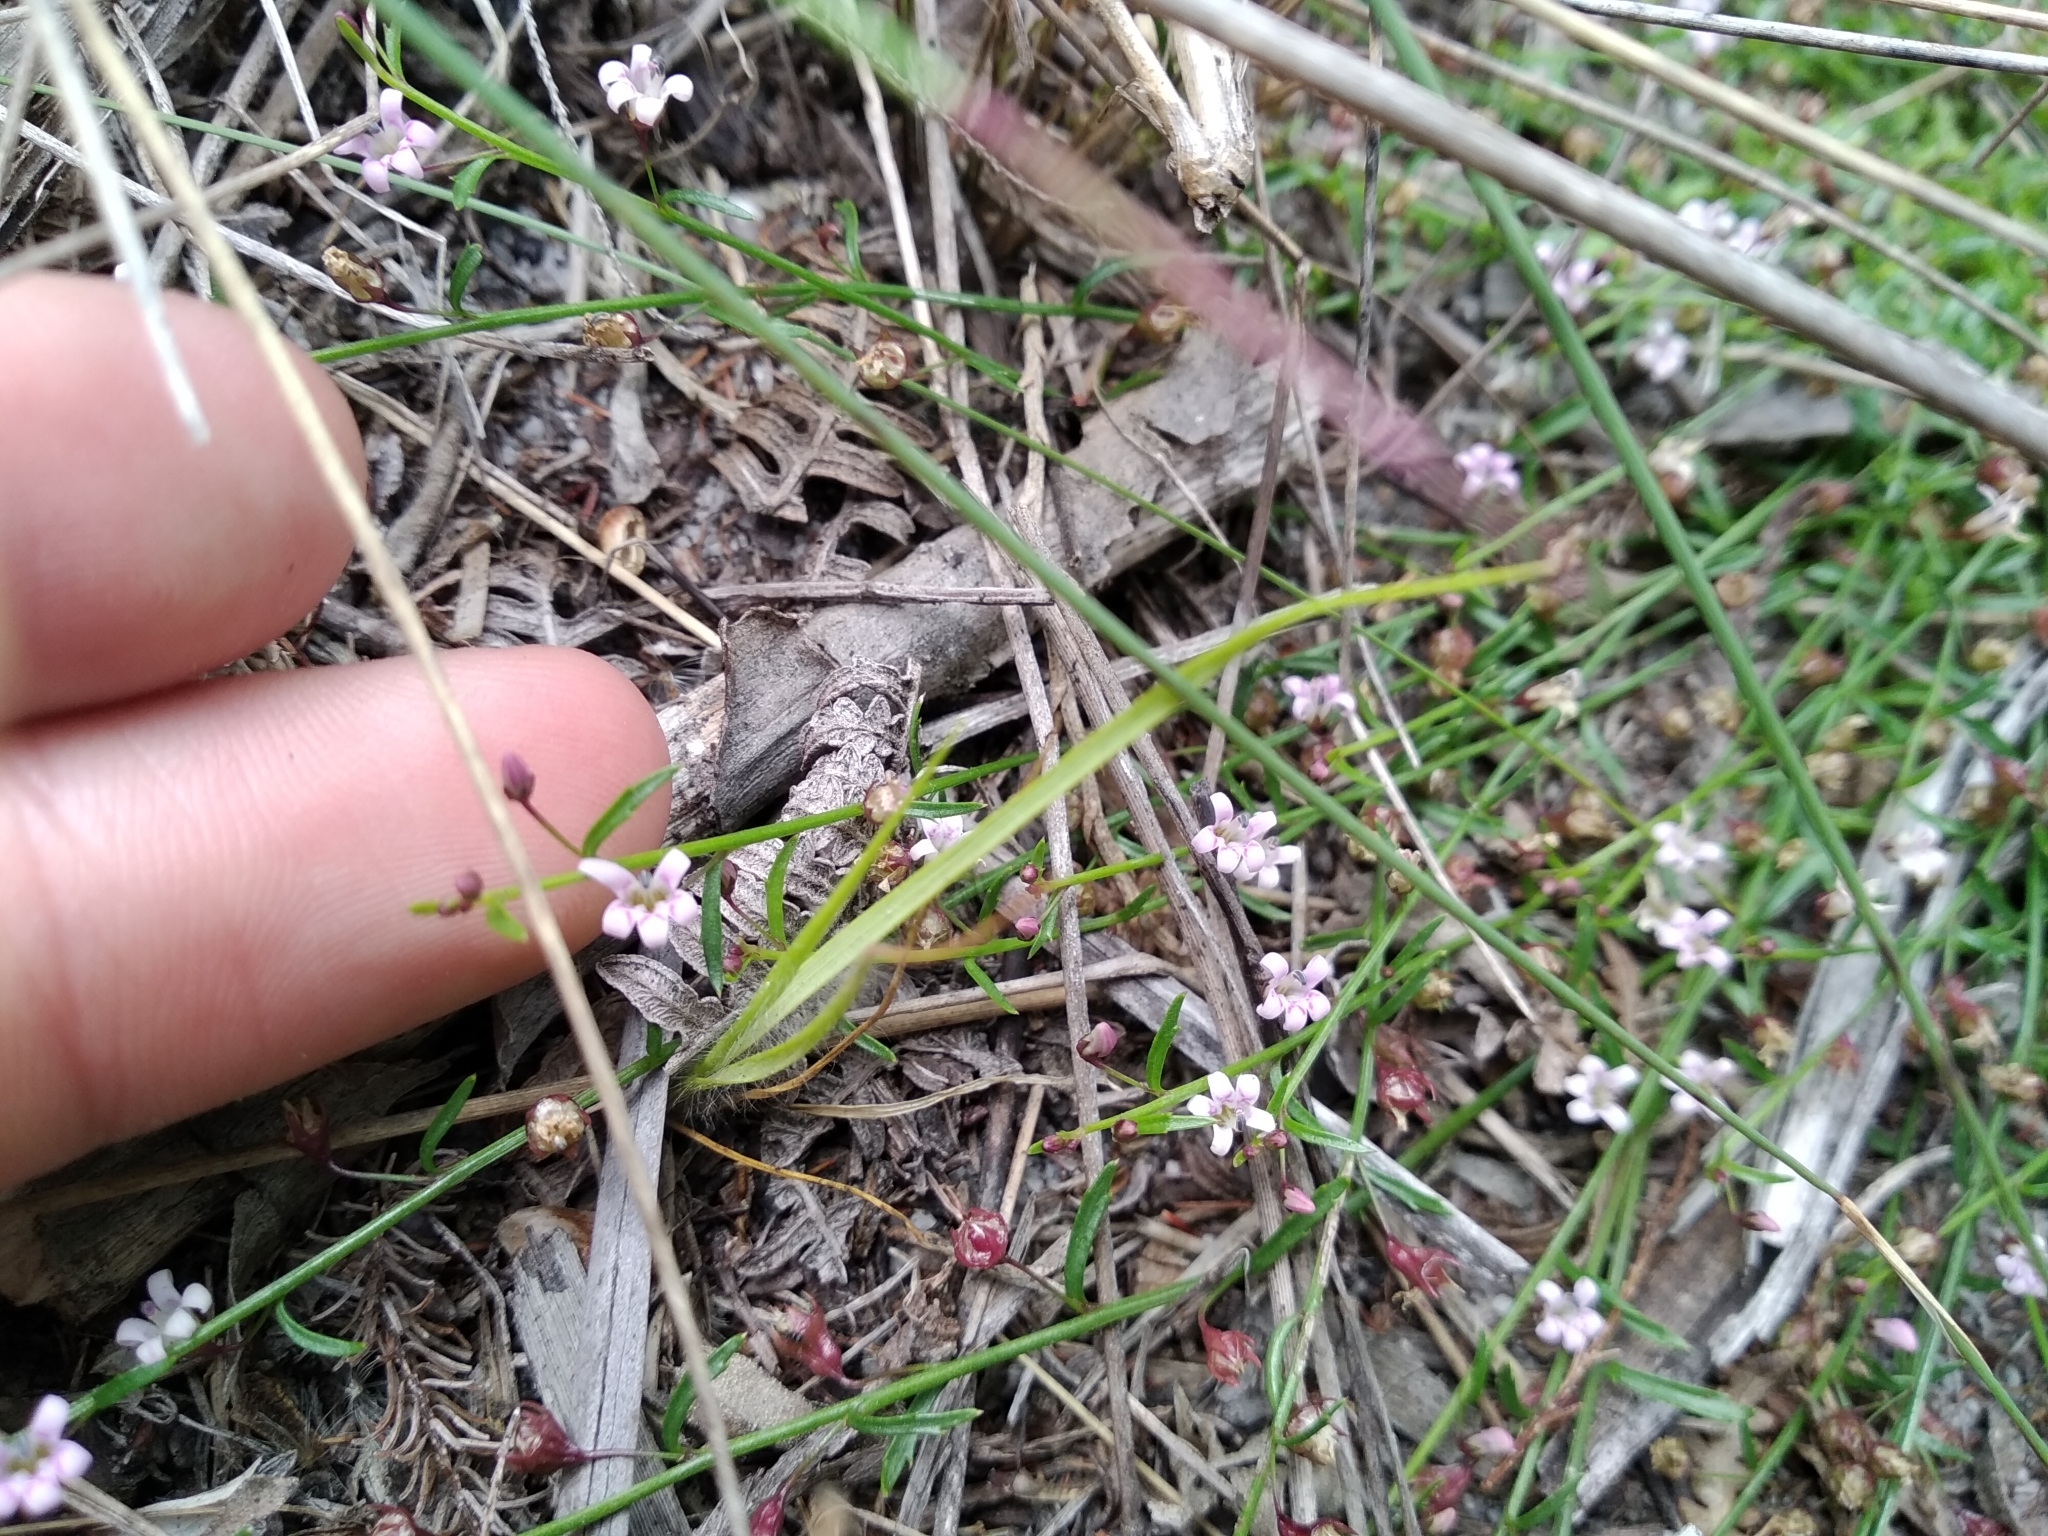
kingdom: Plantae
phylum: Tracheophyta
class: Magnoliopsida
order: Asterales
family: Campanulaceae
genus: Lobelia
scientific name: Lobelia eckloniana
